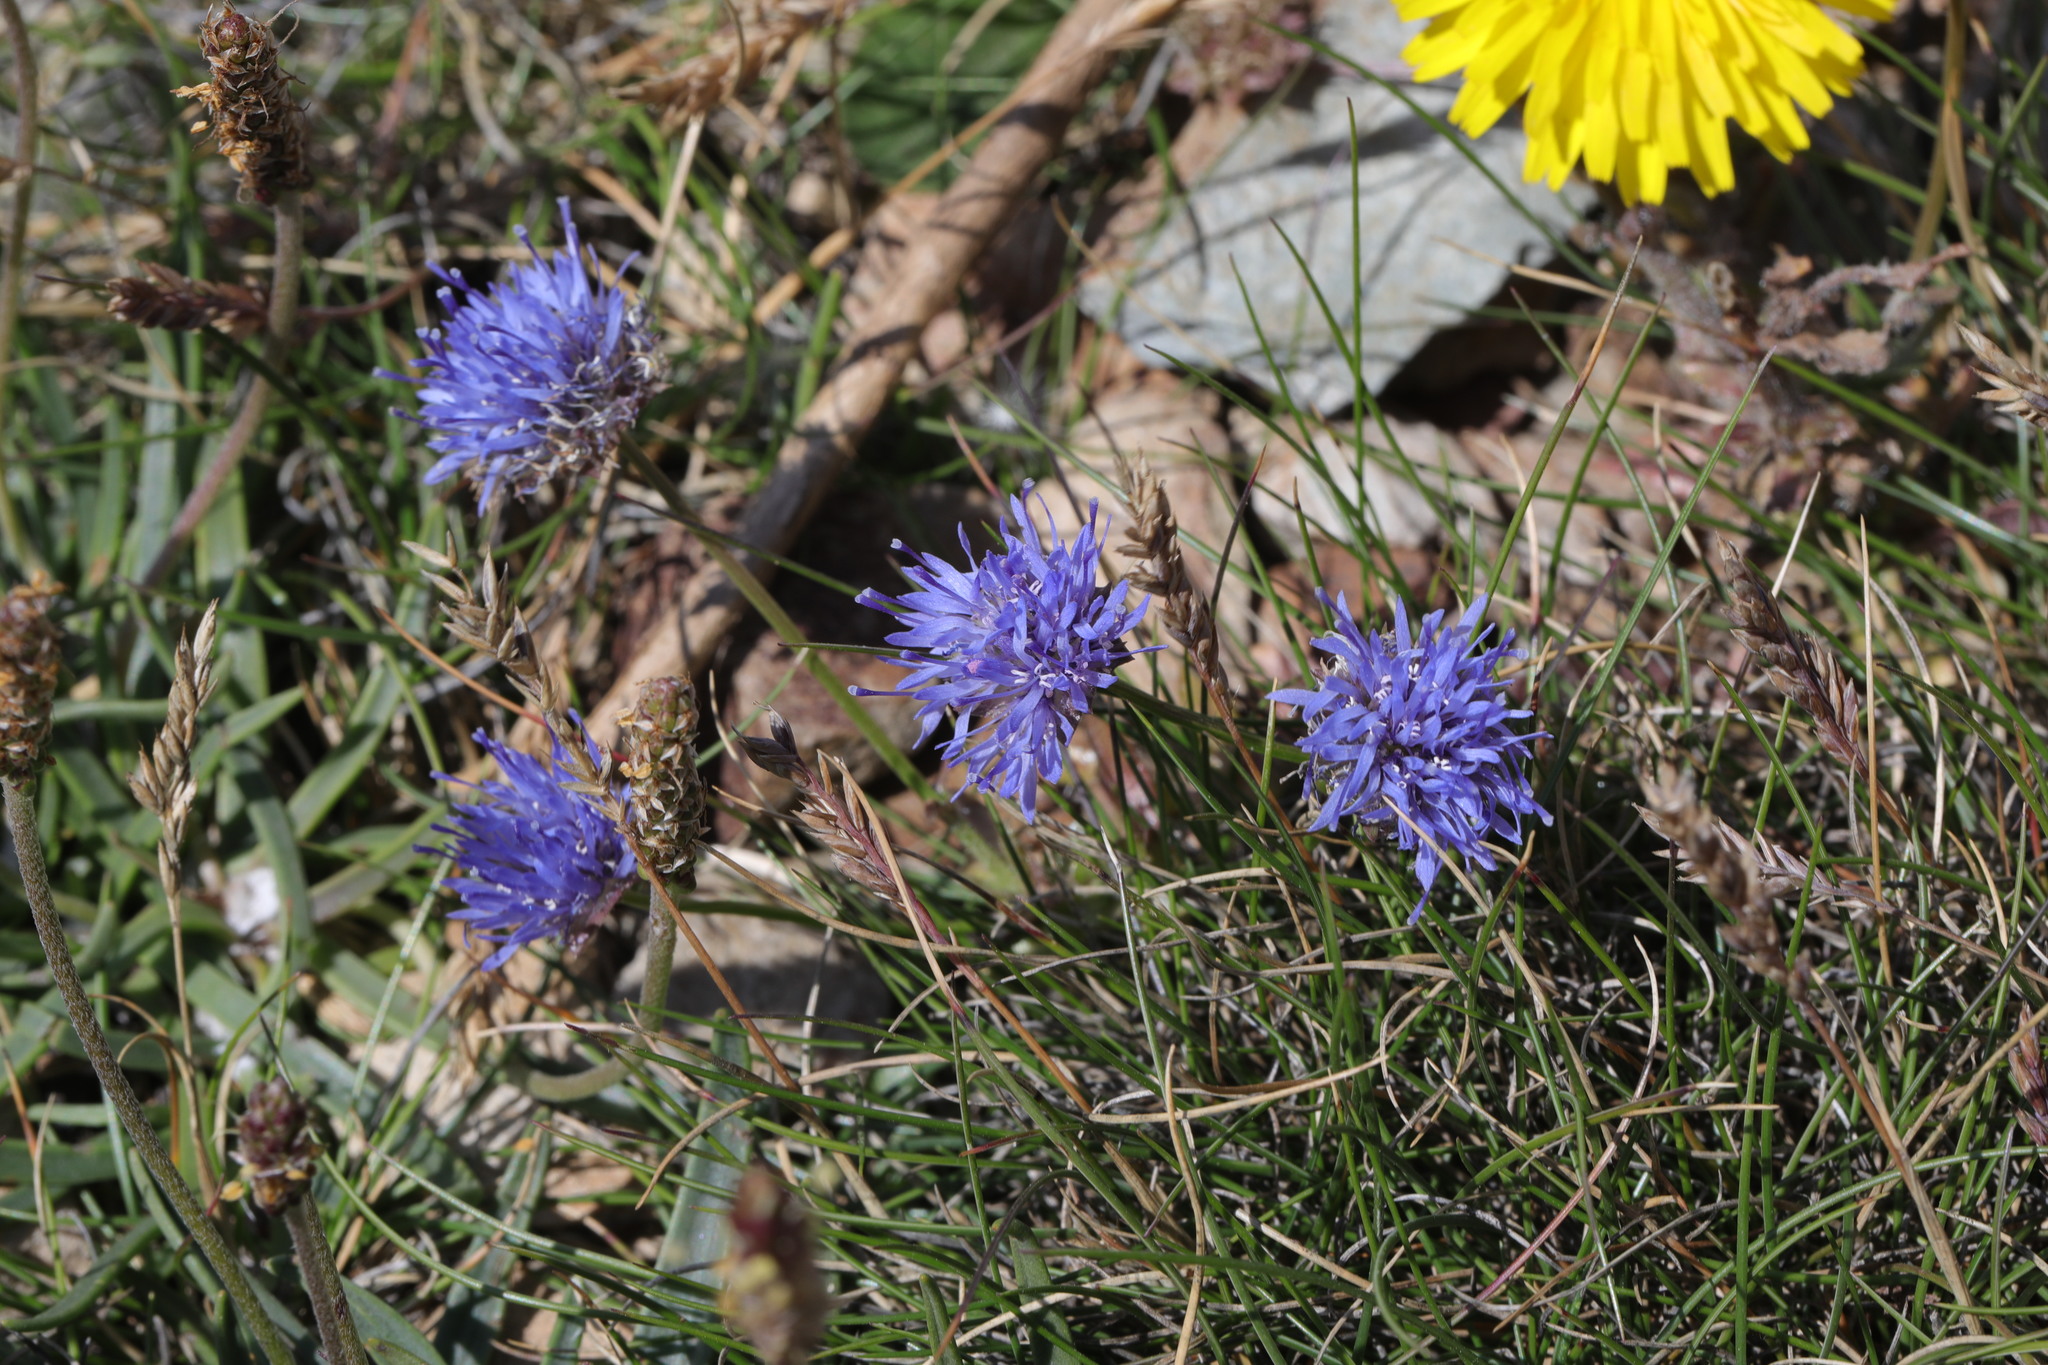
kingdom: Plantae
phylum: Tracheophyta
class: Magnoliopsida
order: Asterales
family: Campanulaceae
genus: Jasione
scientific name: Jasione montana
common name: Sheep's-bit
